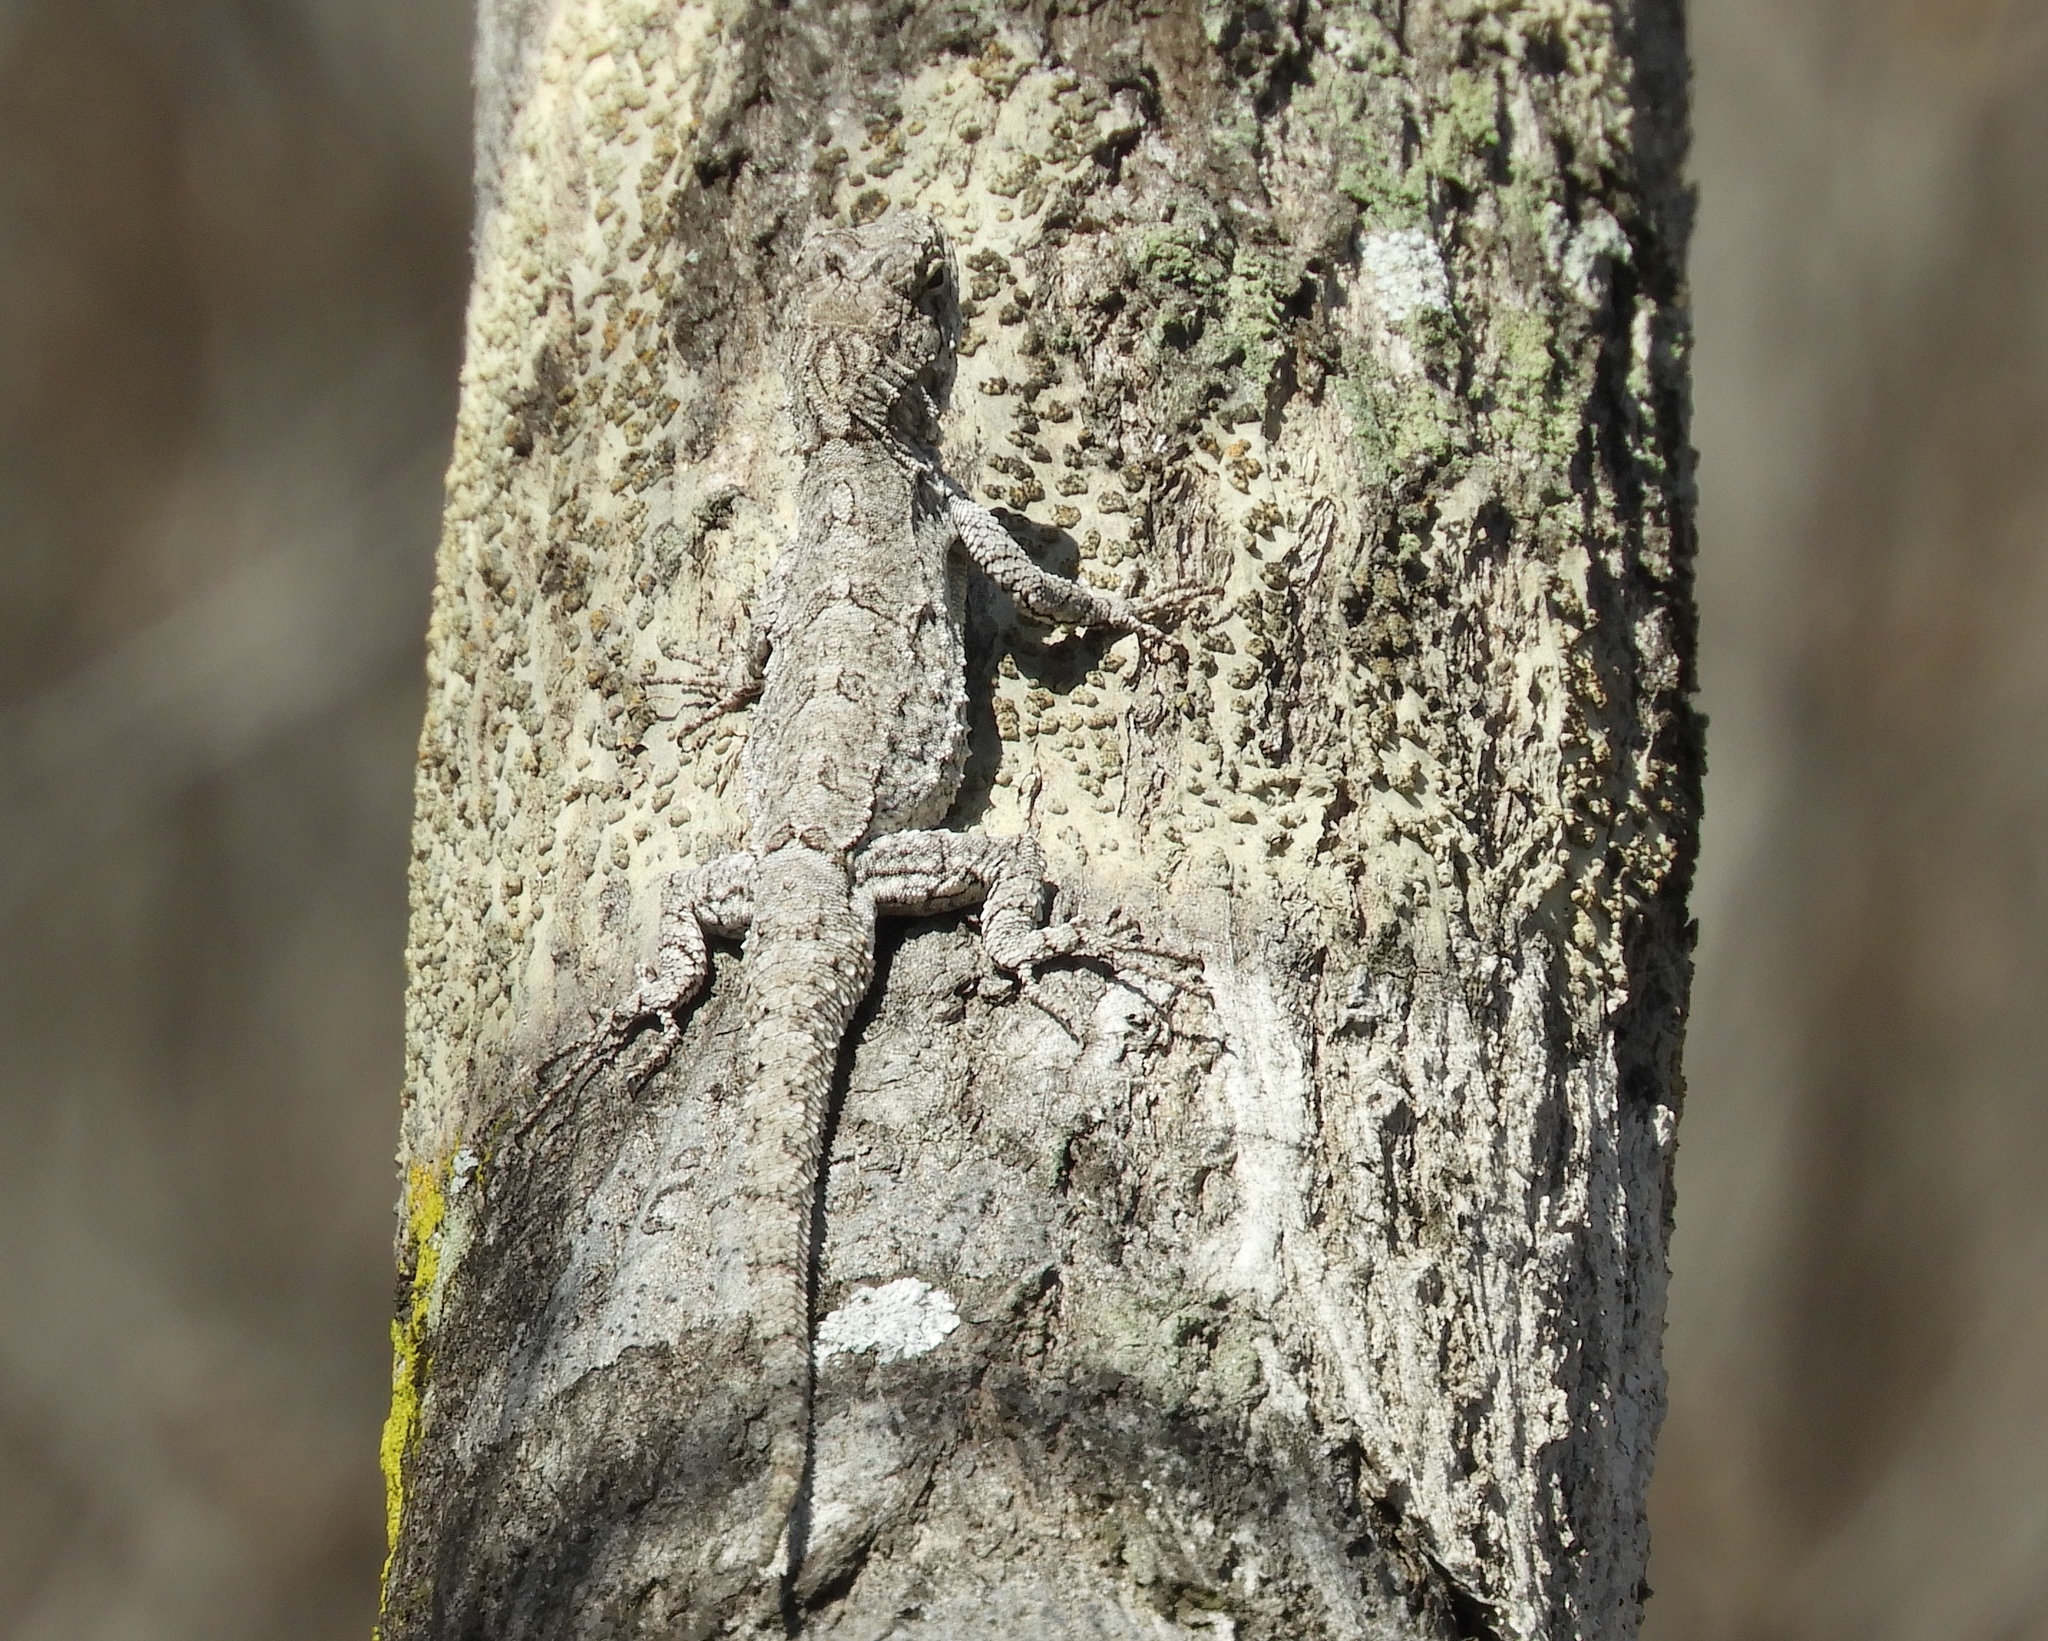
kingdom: Animalia
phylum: Chordata
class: Squamata
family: Phrynosomatidae
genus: Urosaurus
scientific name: Urosaurus bicarinatus
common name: Tropical tree lizard
